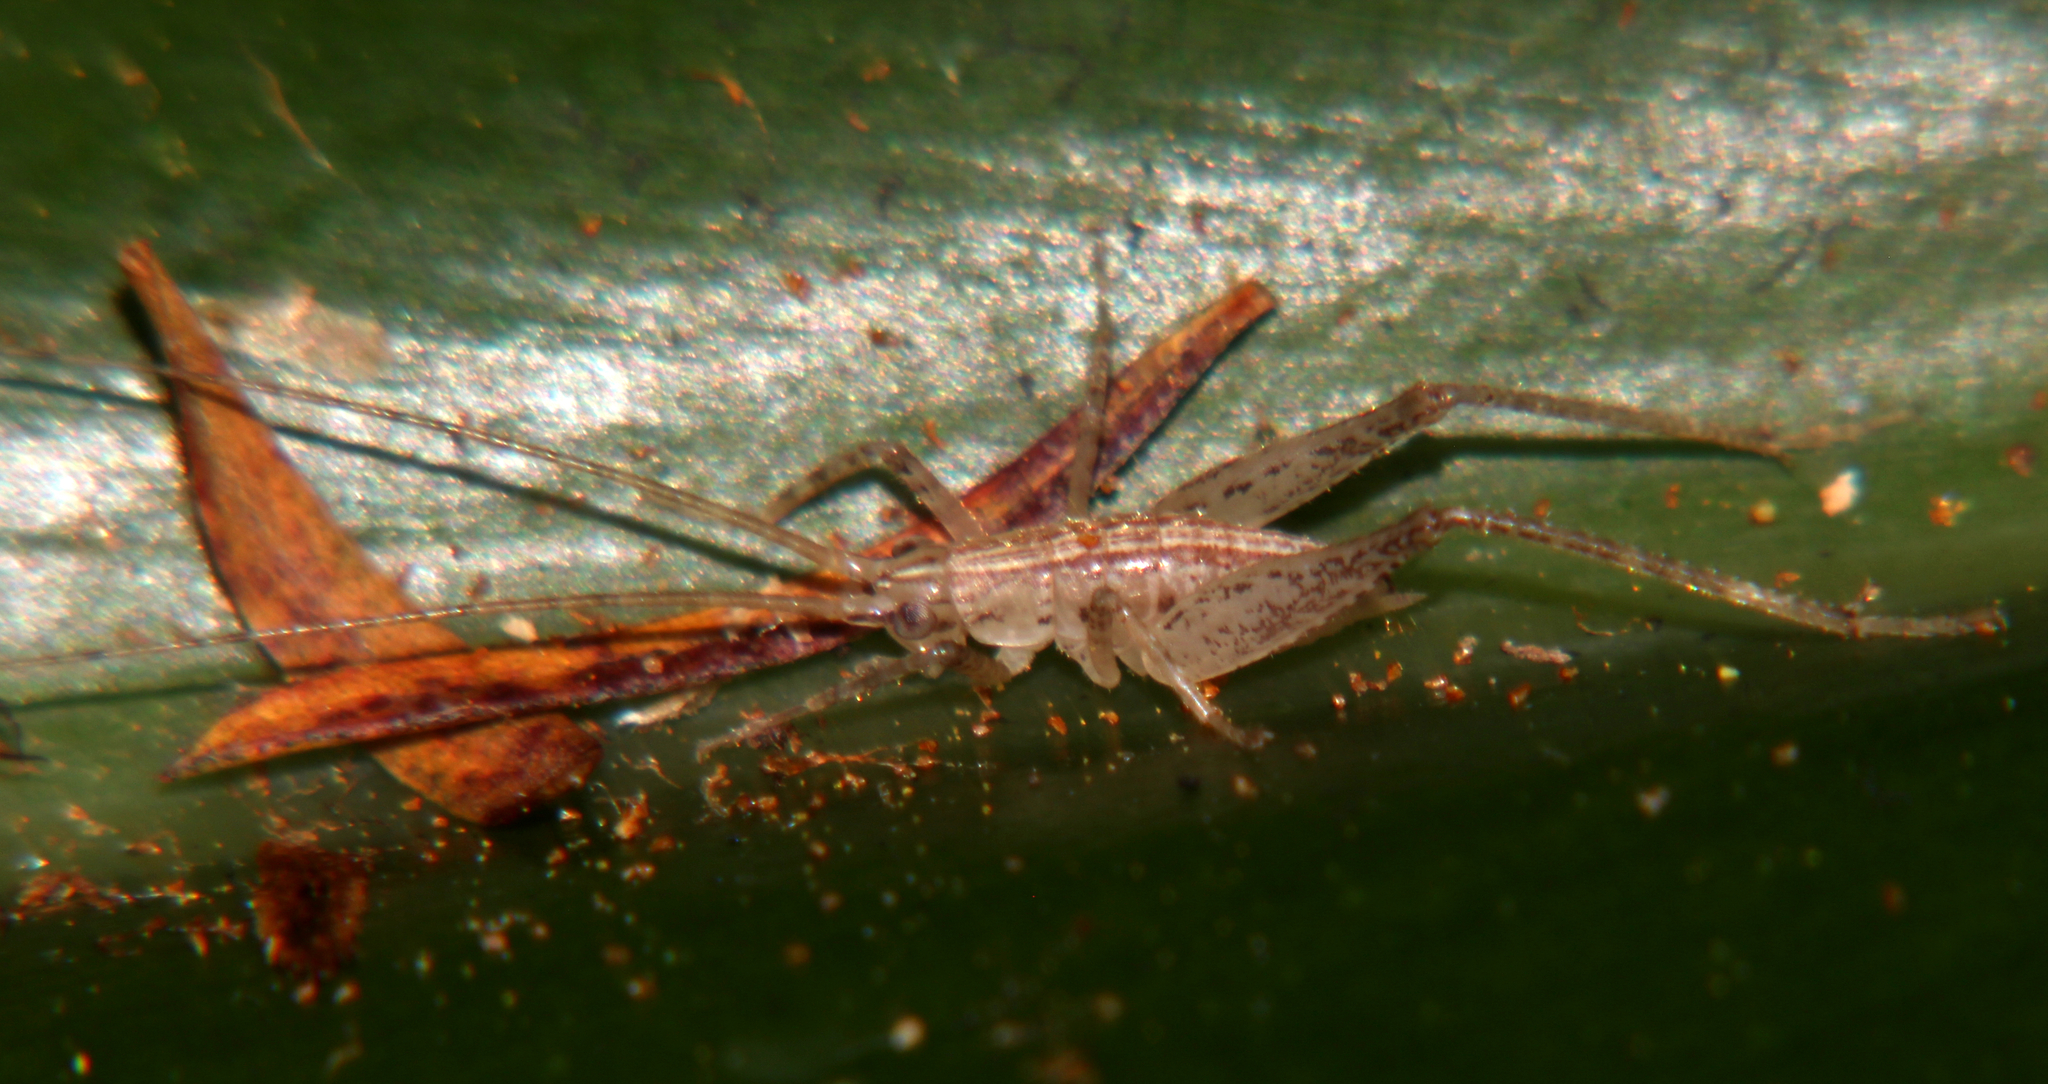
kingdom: Animalia
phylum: Arthropoda
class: Insecta
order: Orthoptera
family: Rhaphidophoridae
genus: Talitropsis
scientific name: Talitropsis poduroides
